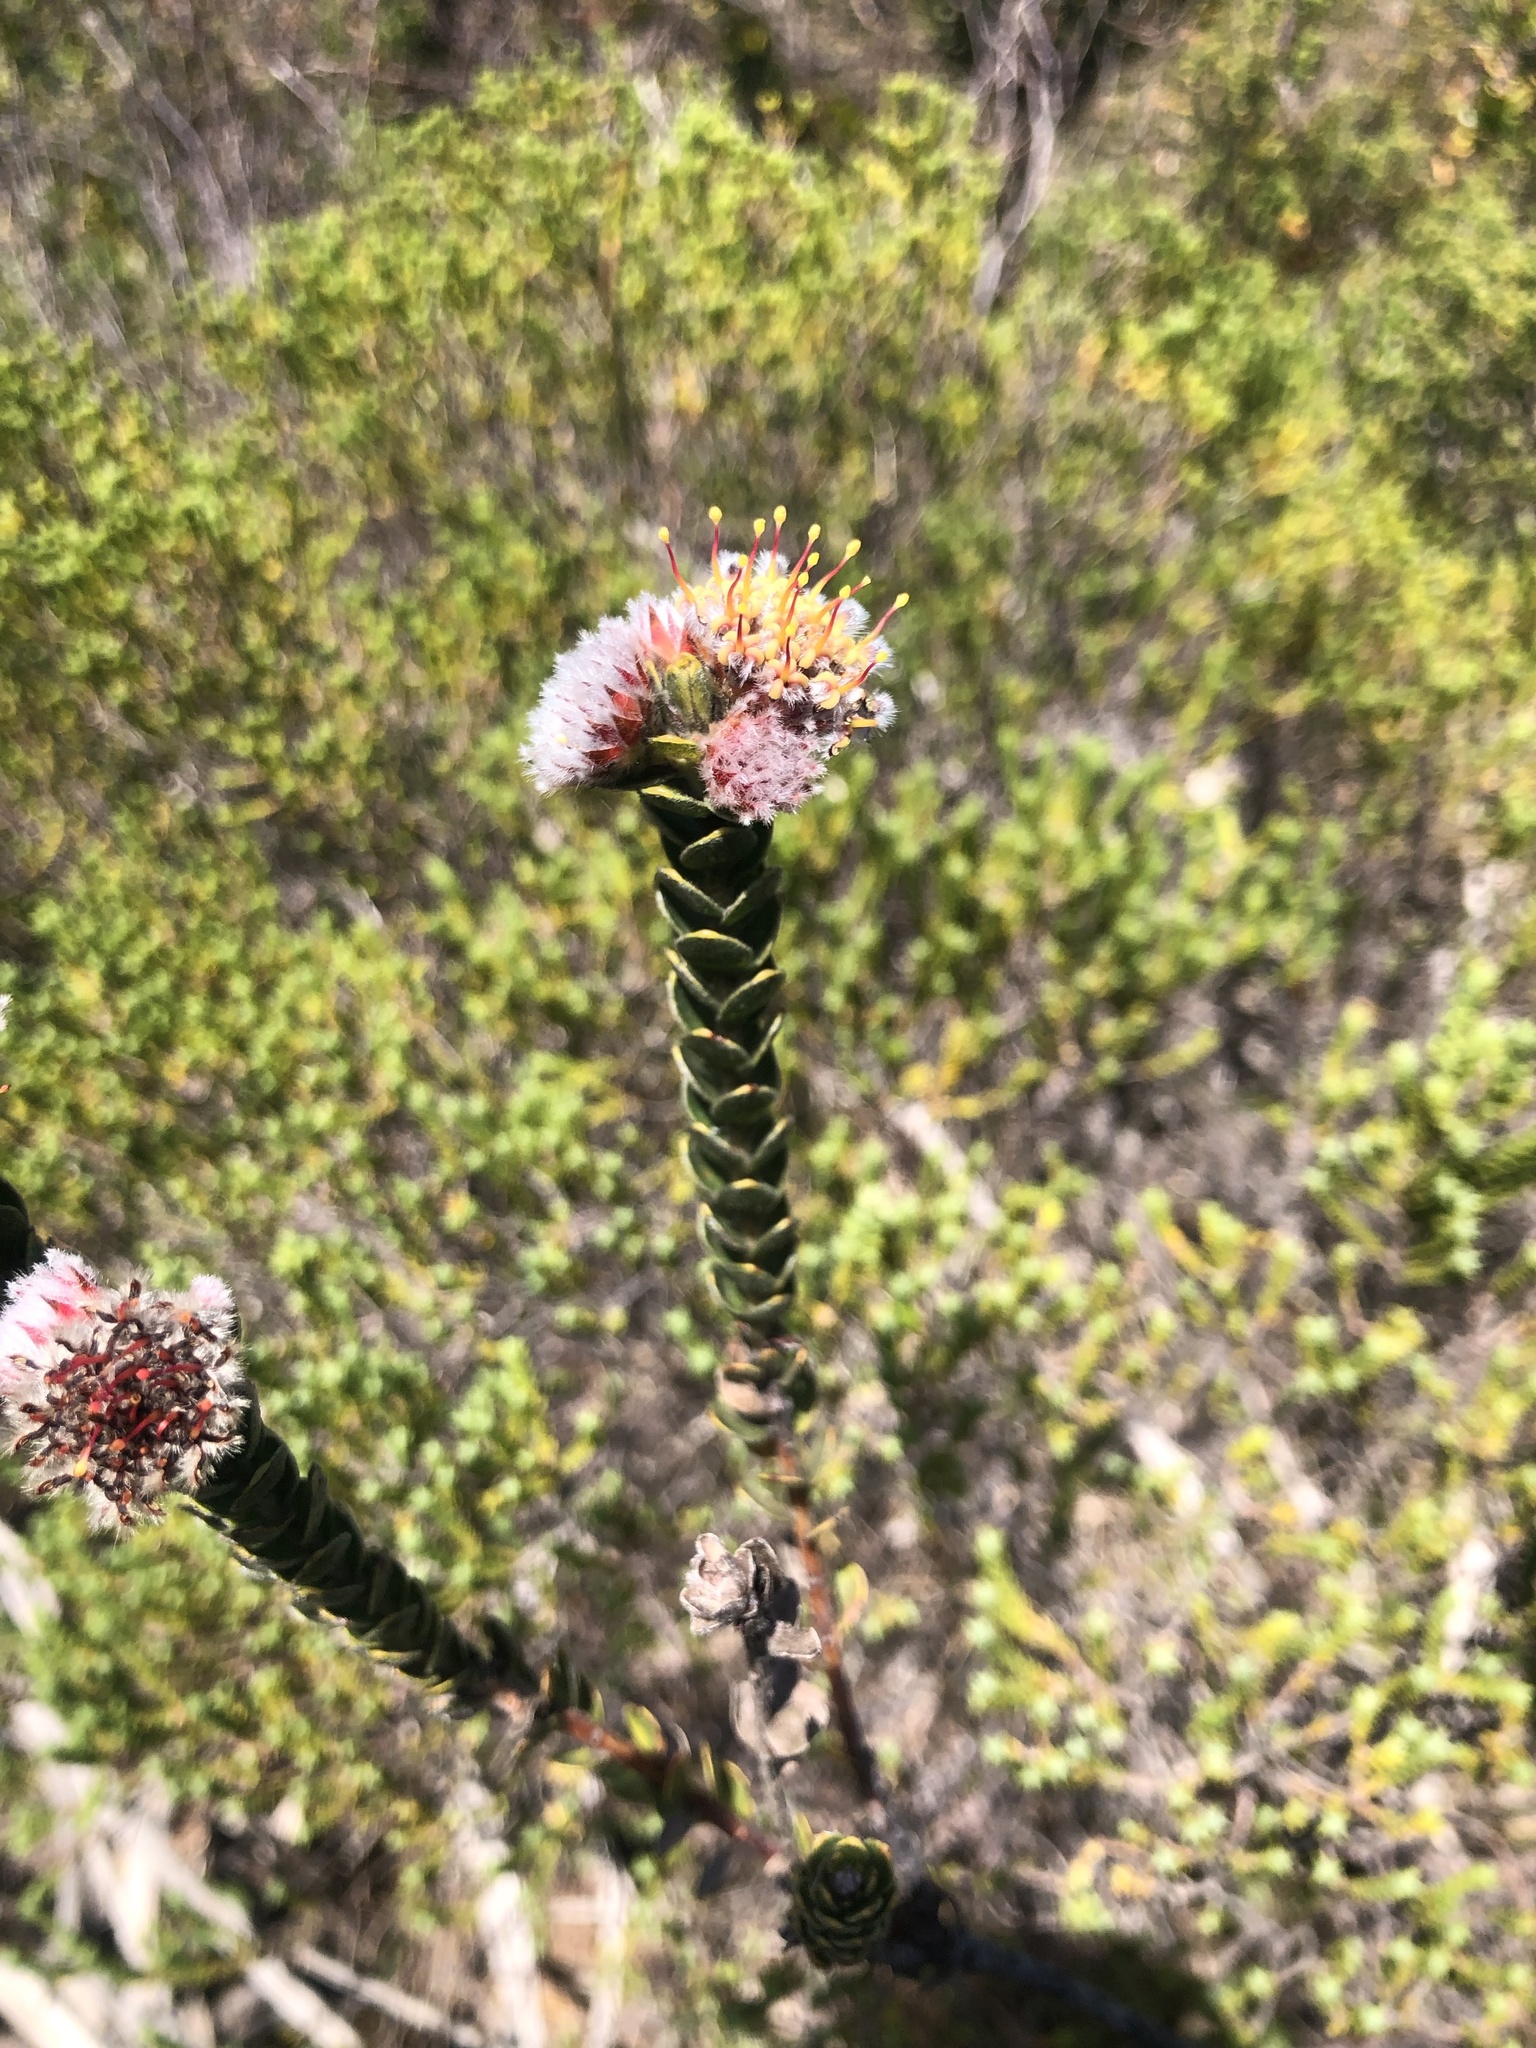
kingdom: Plantae
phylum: Tracheophyta
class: Magnoliopsida
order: Proteales
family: Proteaceae
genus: Leucospermum
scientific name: Leucospermum truncatulum
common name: Oval-leaf pincushion
